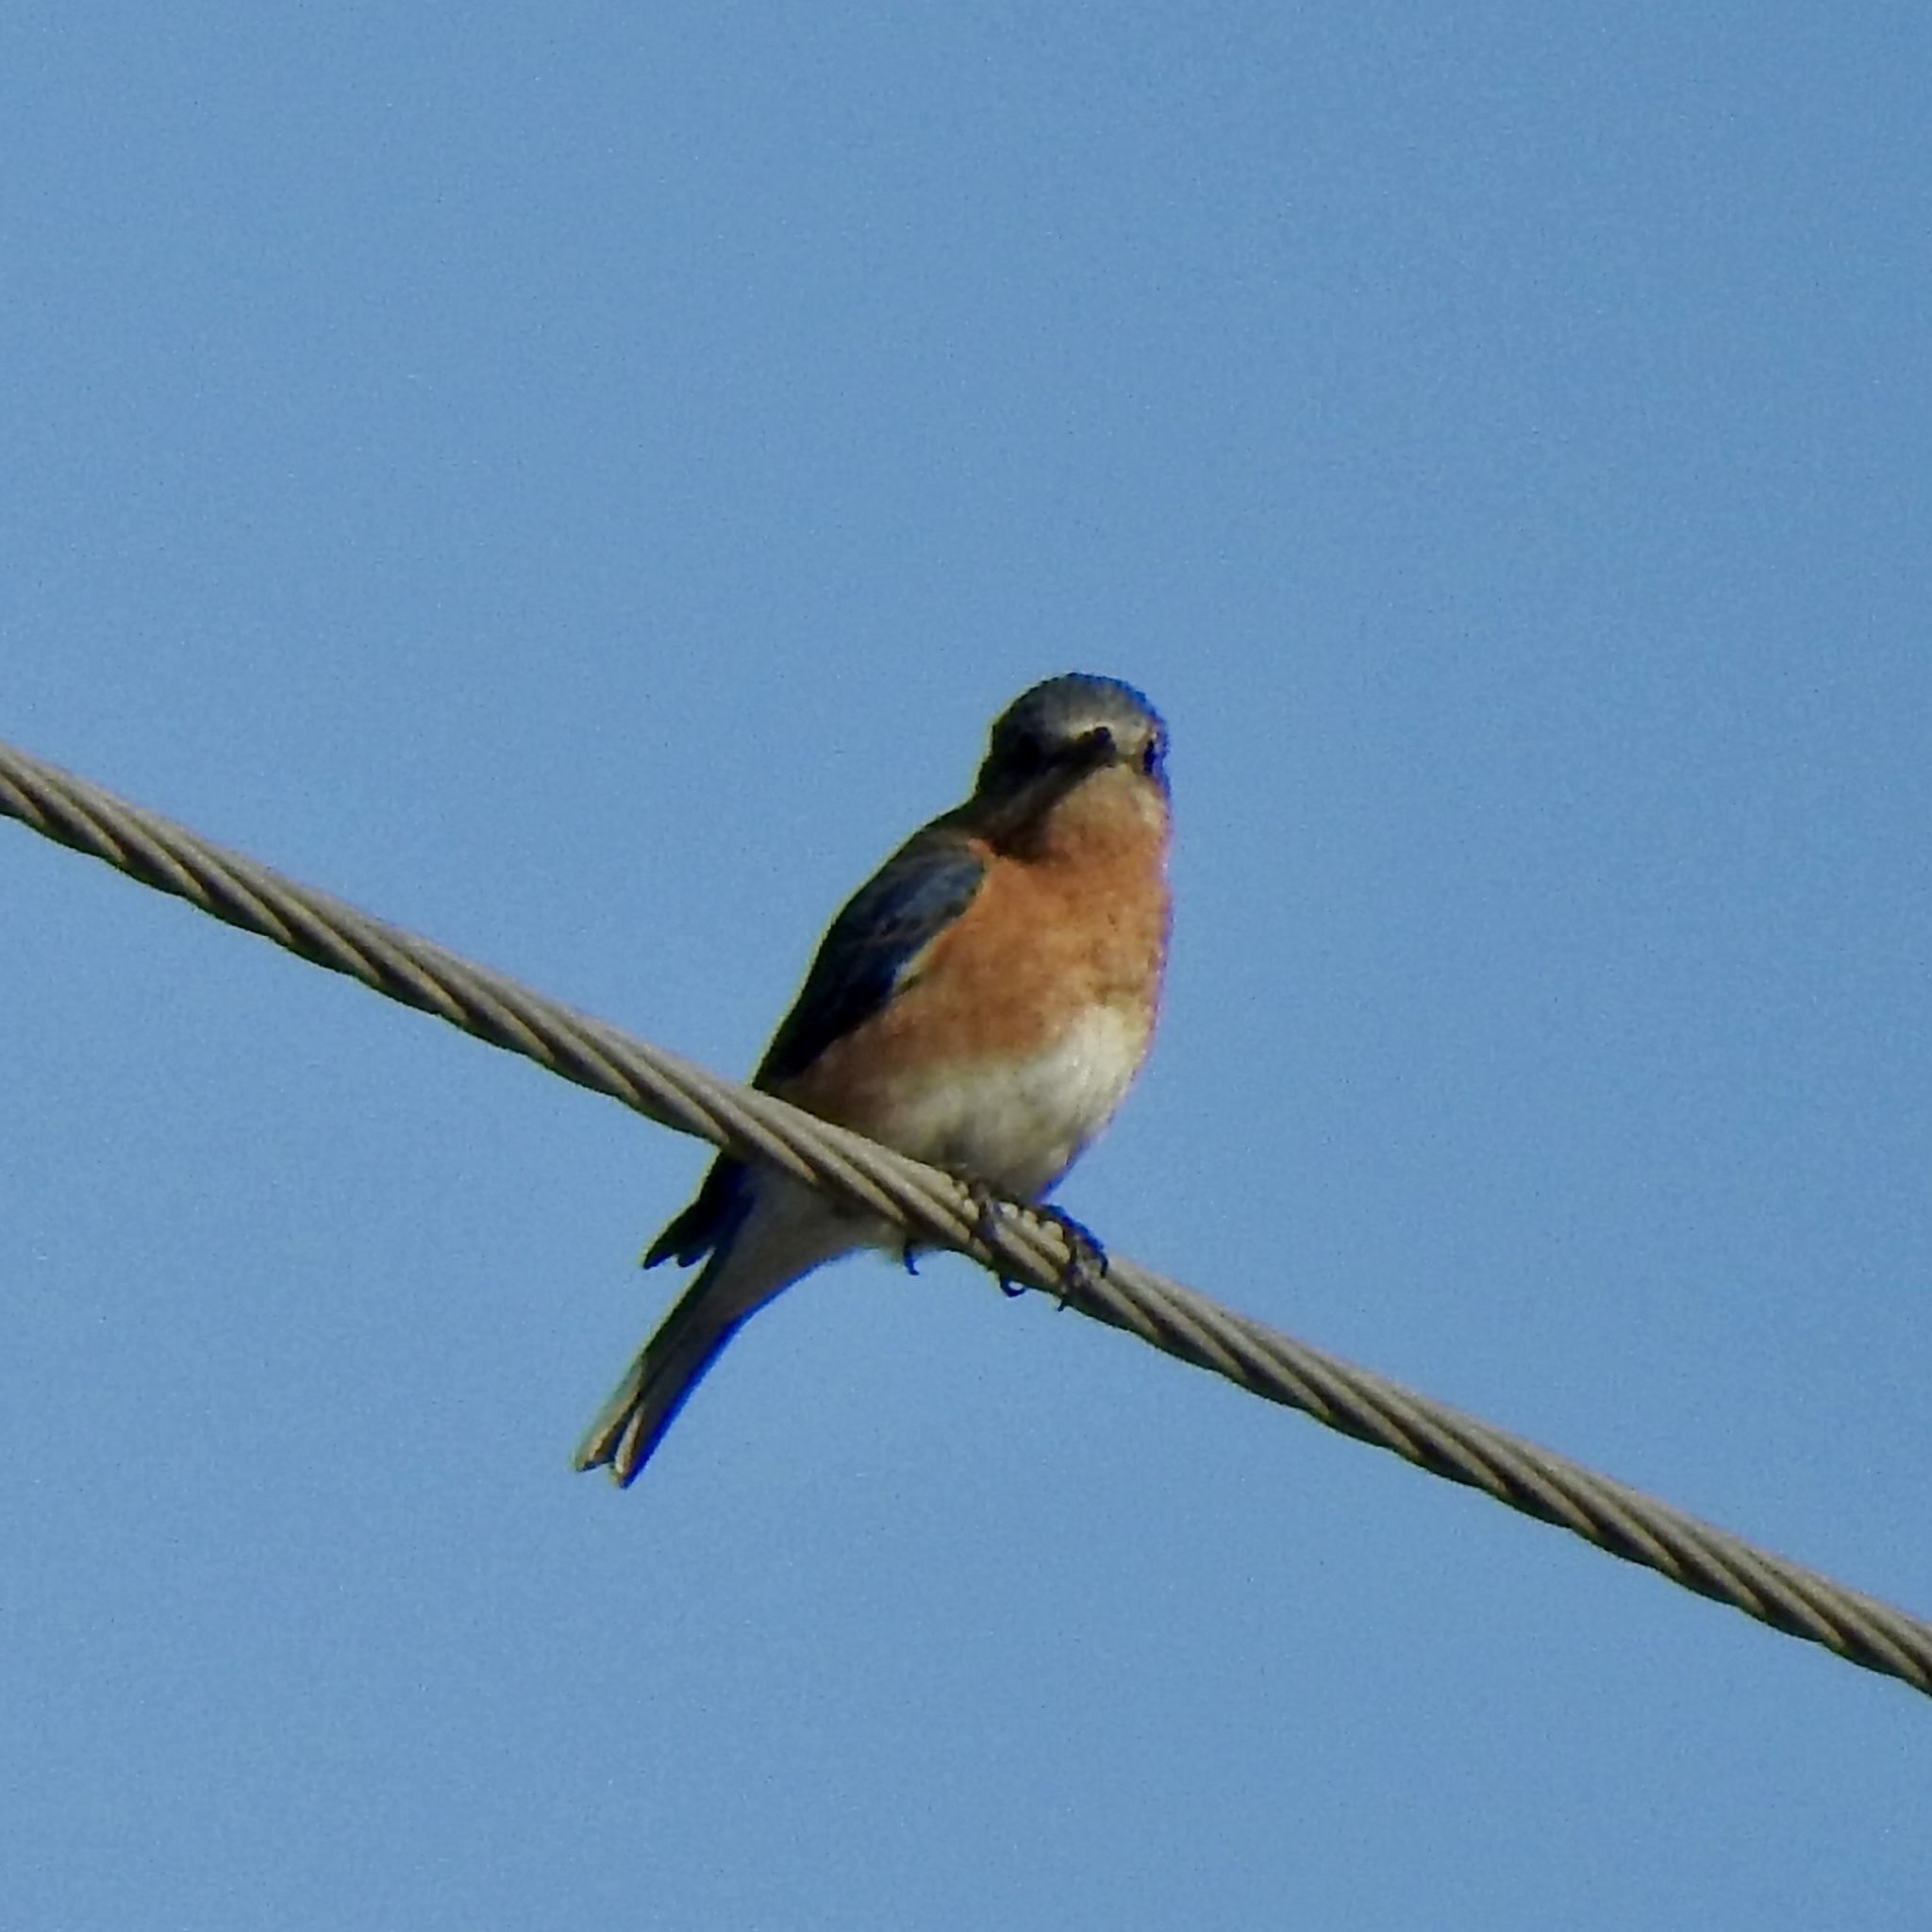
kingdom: Animalia
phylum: Chordata
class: Aves
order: Passeriformes
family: Turdidae
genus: Sialia
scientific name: Sialia sialis
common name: Eastern bluebird
